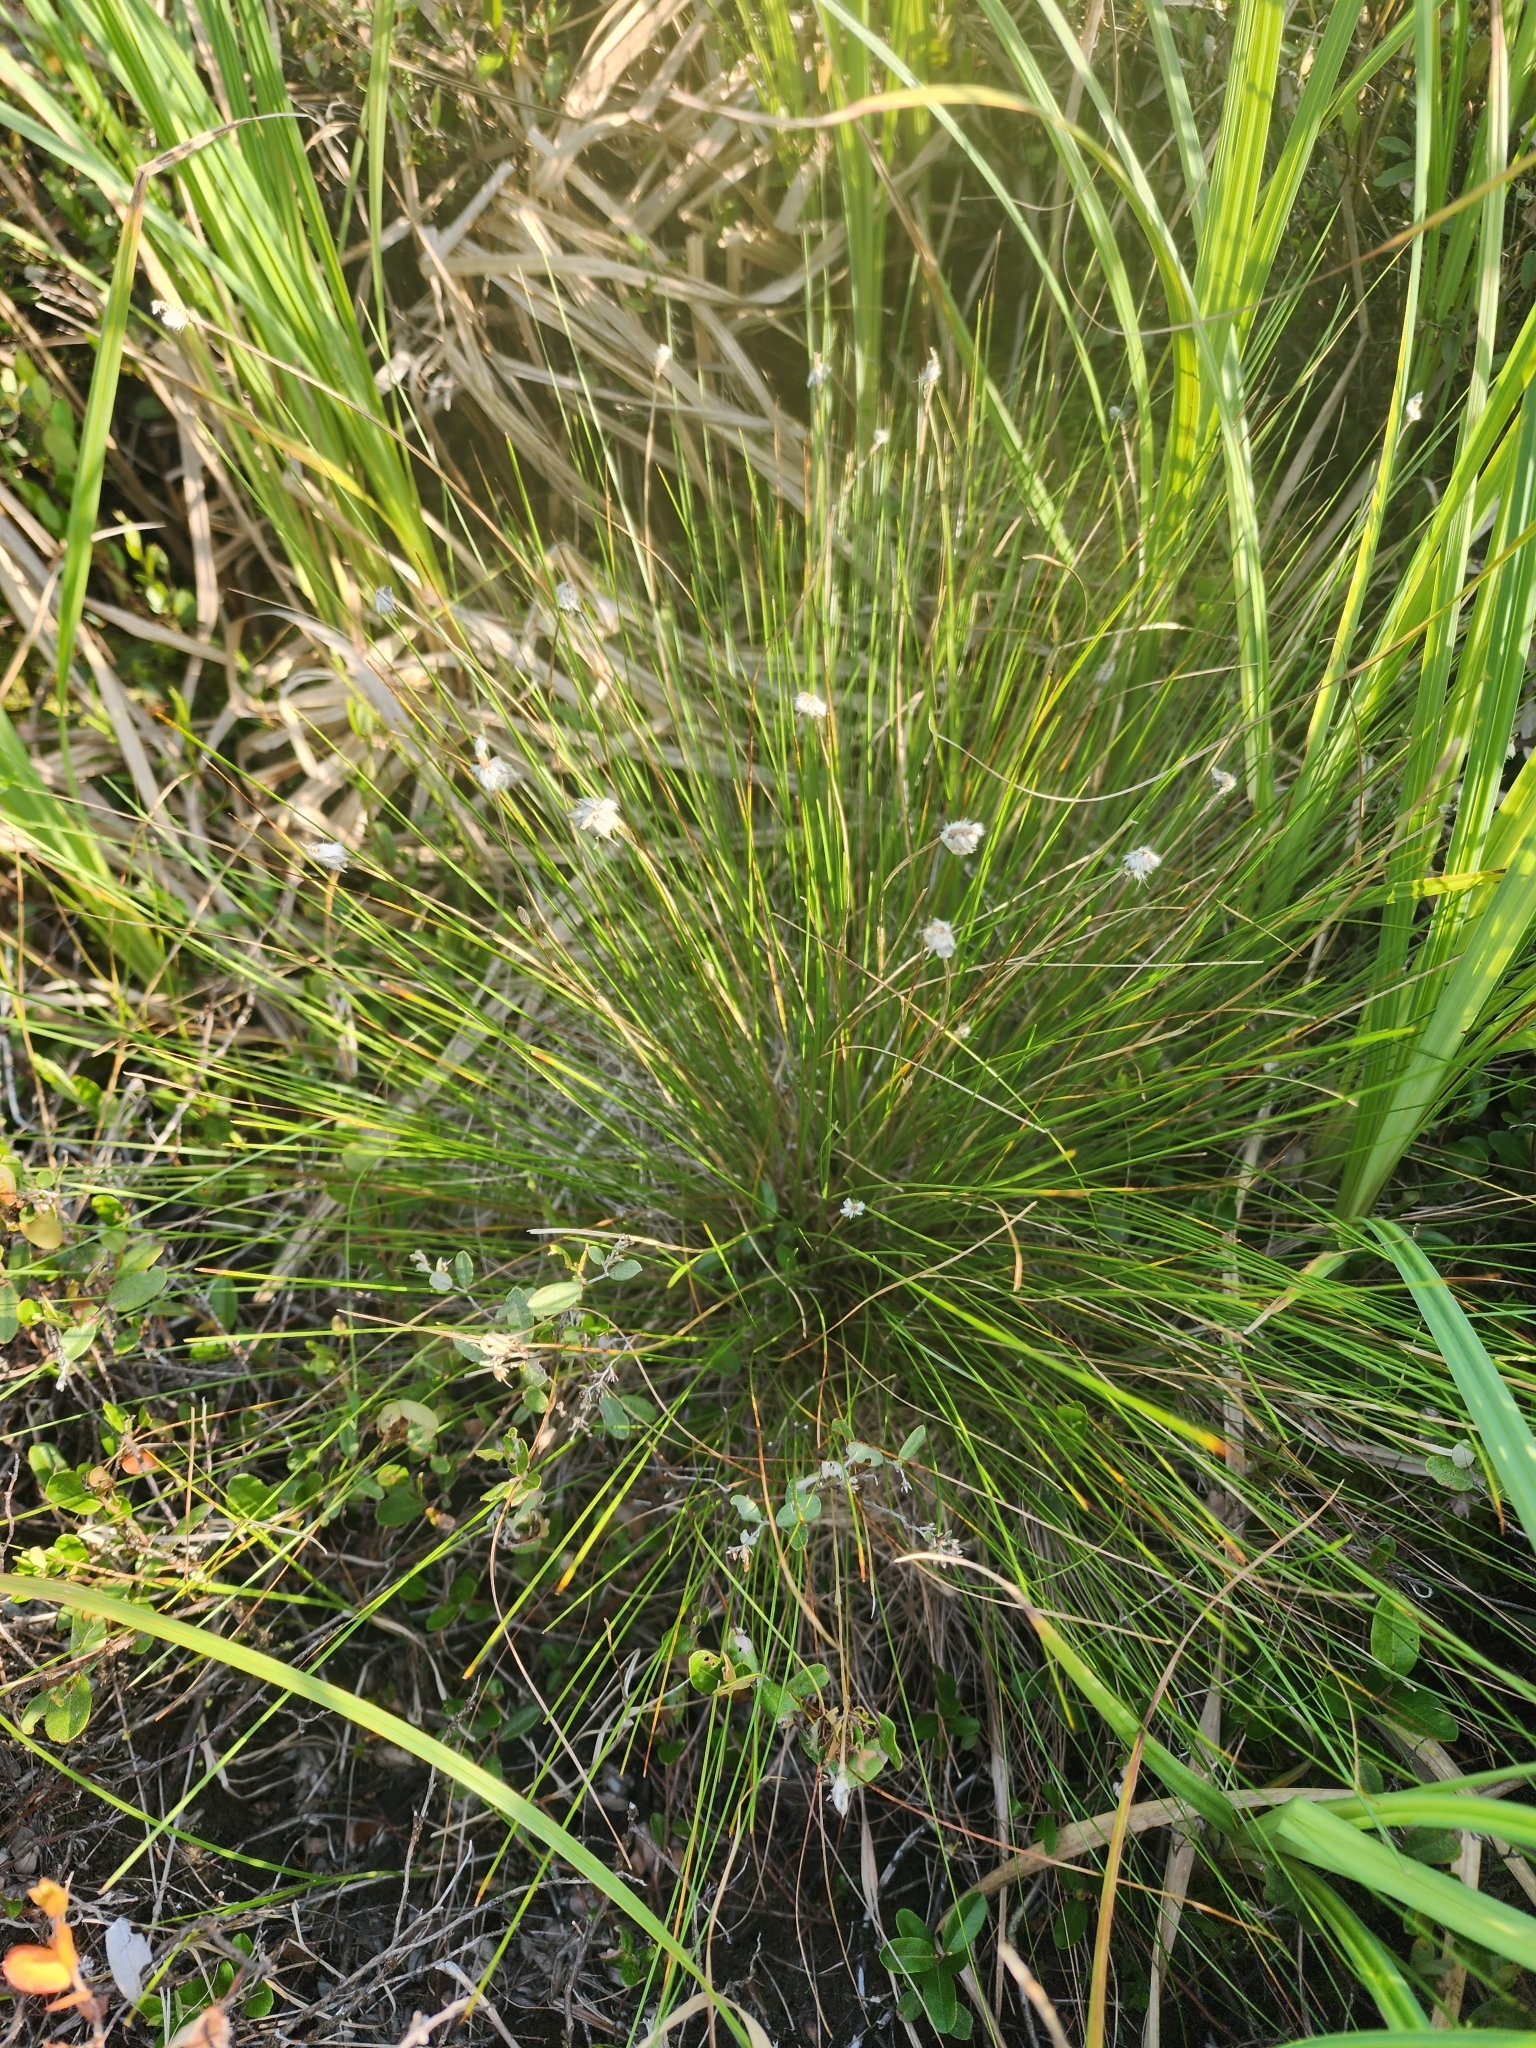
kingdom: Plantae
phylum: Tracheophyta
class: Liliopsida
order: Poales
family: Cyperaceae
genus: Eriophorum
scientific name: Eriophorum vaginatum
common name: Hare's-tail cottongrass
